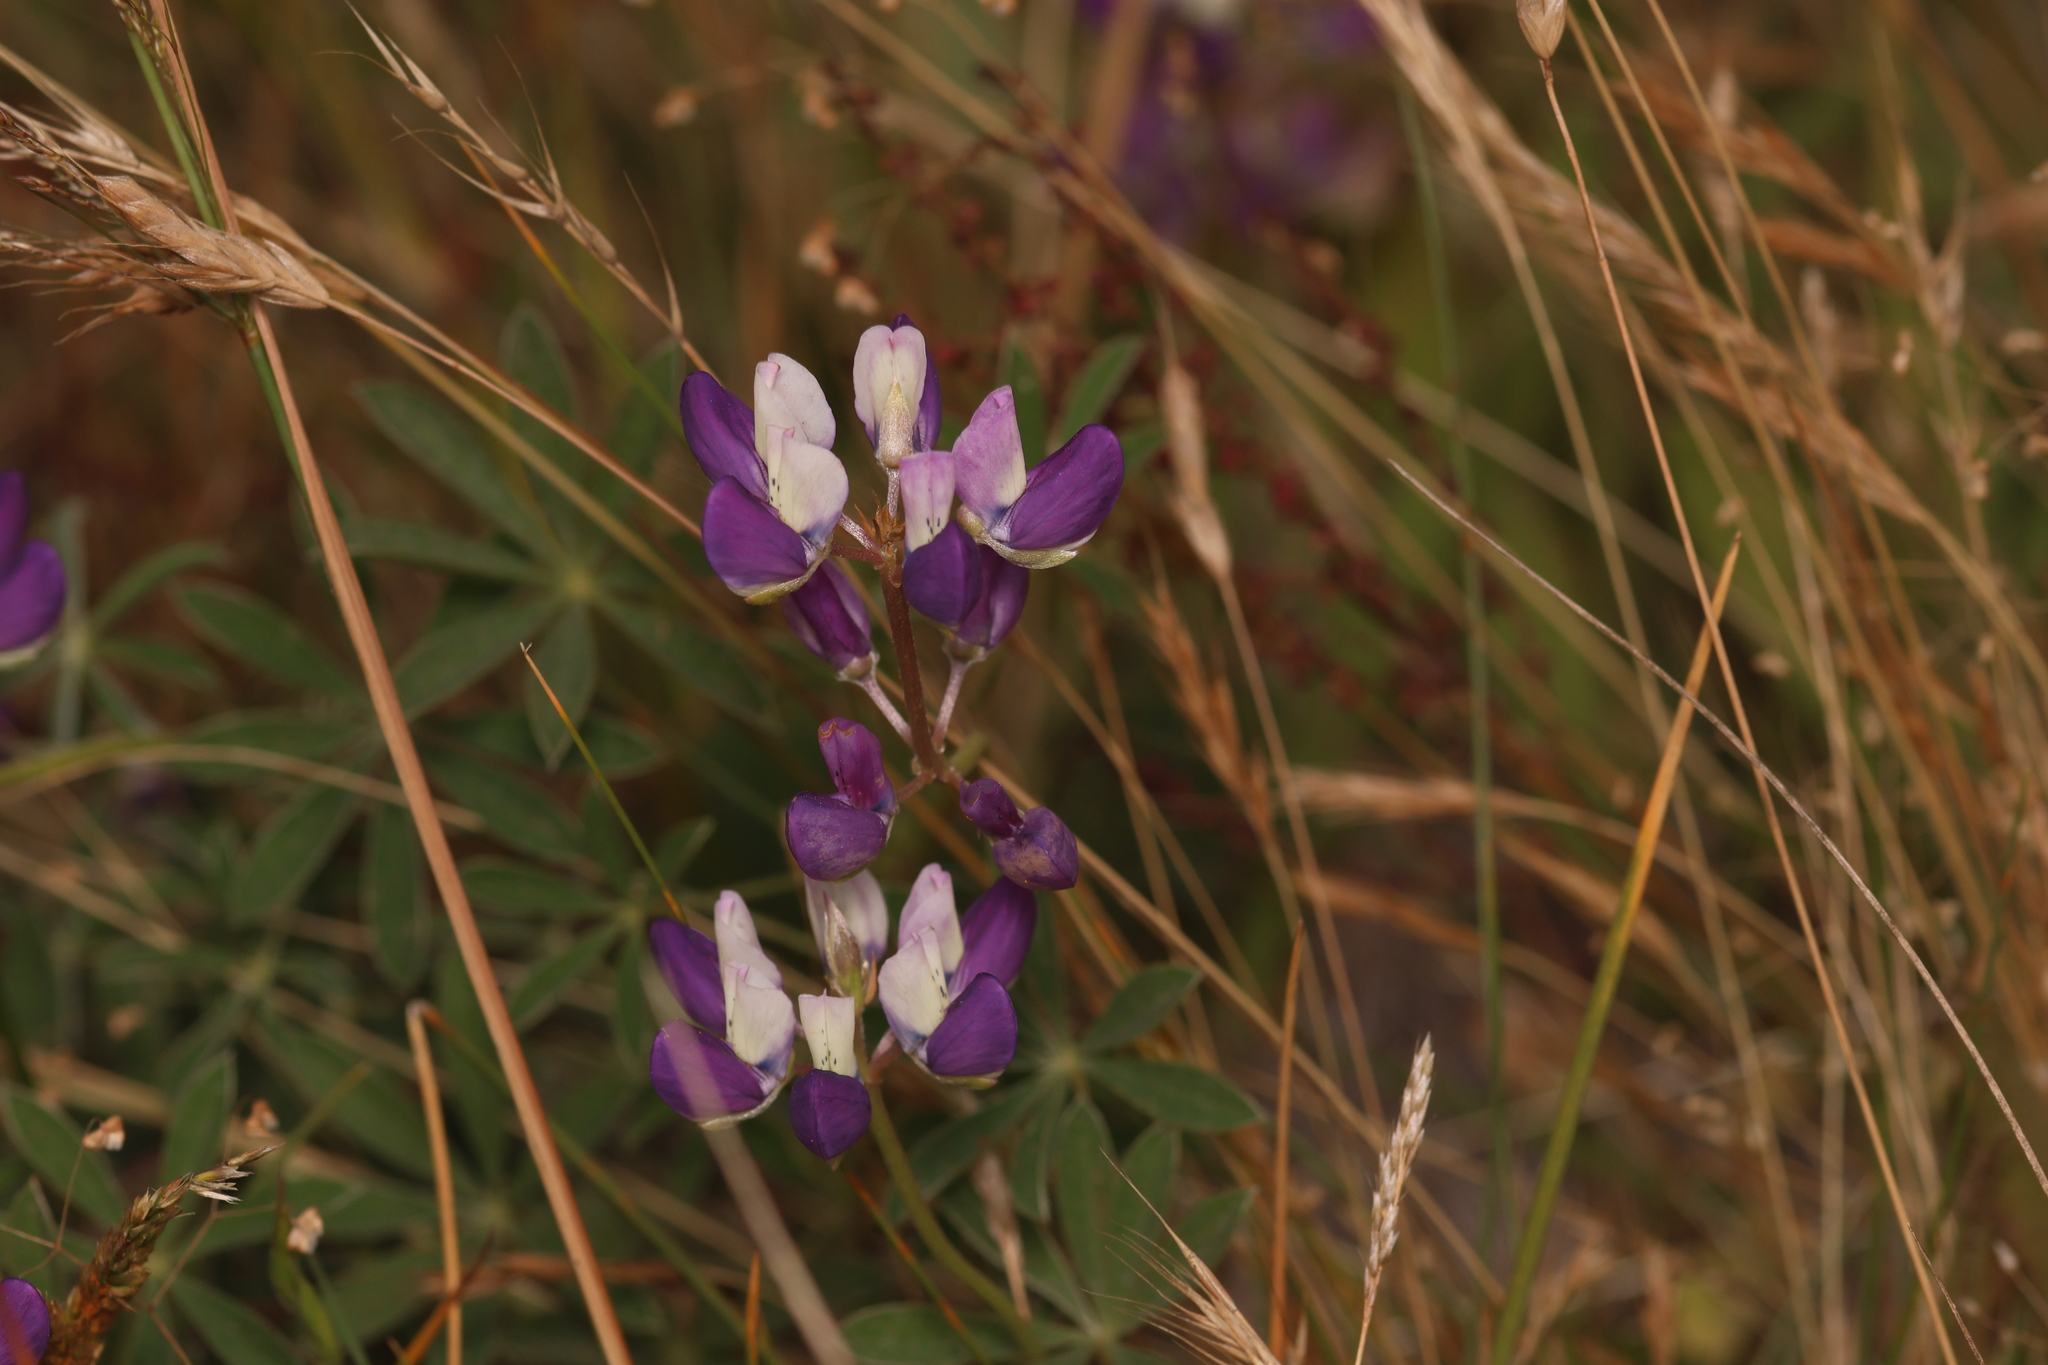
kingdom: Plantae
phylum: Tracheophyta
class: Magnoliopsida
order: Fabales
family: Fabaceae
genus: Lupinus
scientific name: Lupinus variicolor
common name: Lindley's varied lupine
